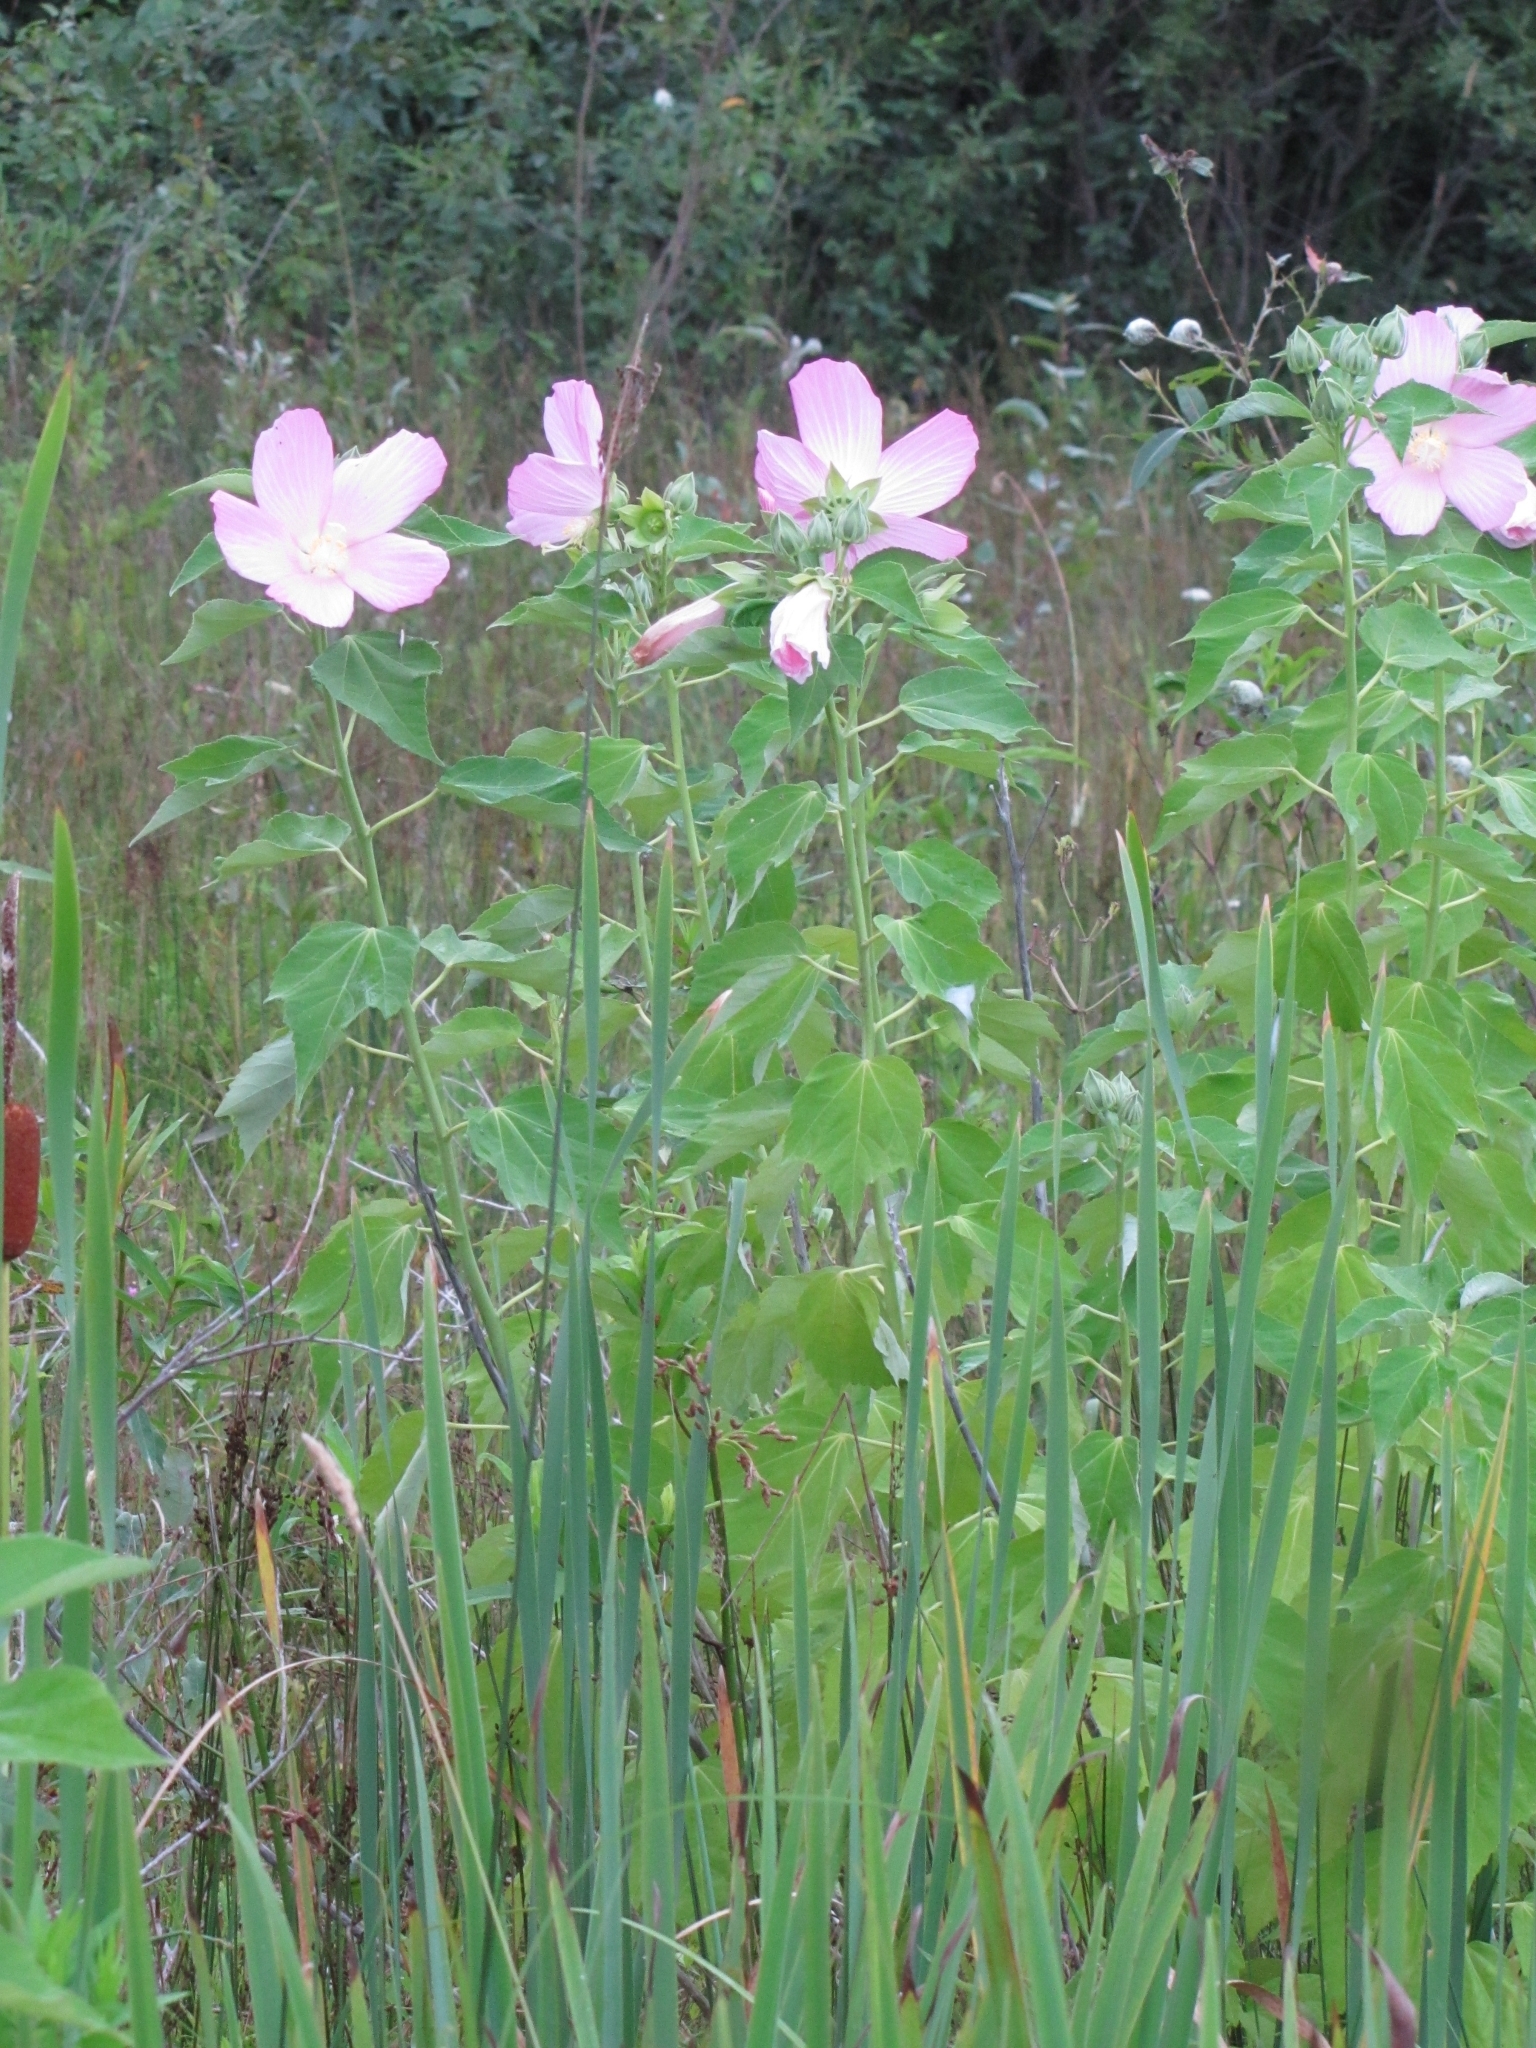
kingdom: Plantae
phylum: Tracheophyta
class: Magnoliopsida
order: Malvales
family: Malvaceae
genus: Hibiscus
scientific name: Hibiscus moscheutos
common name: Common rose-mallow
